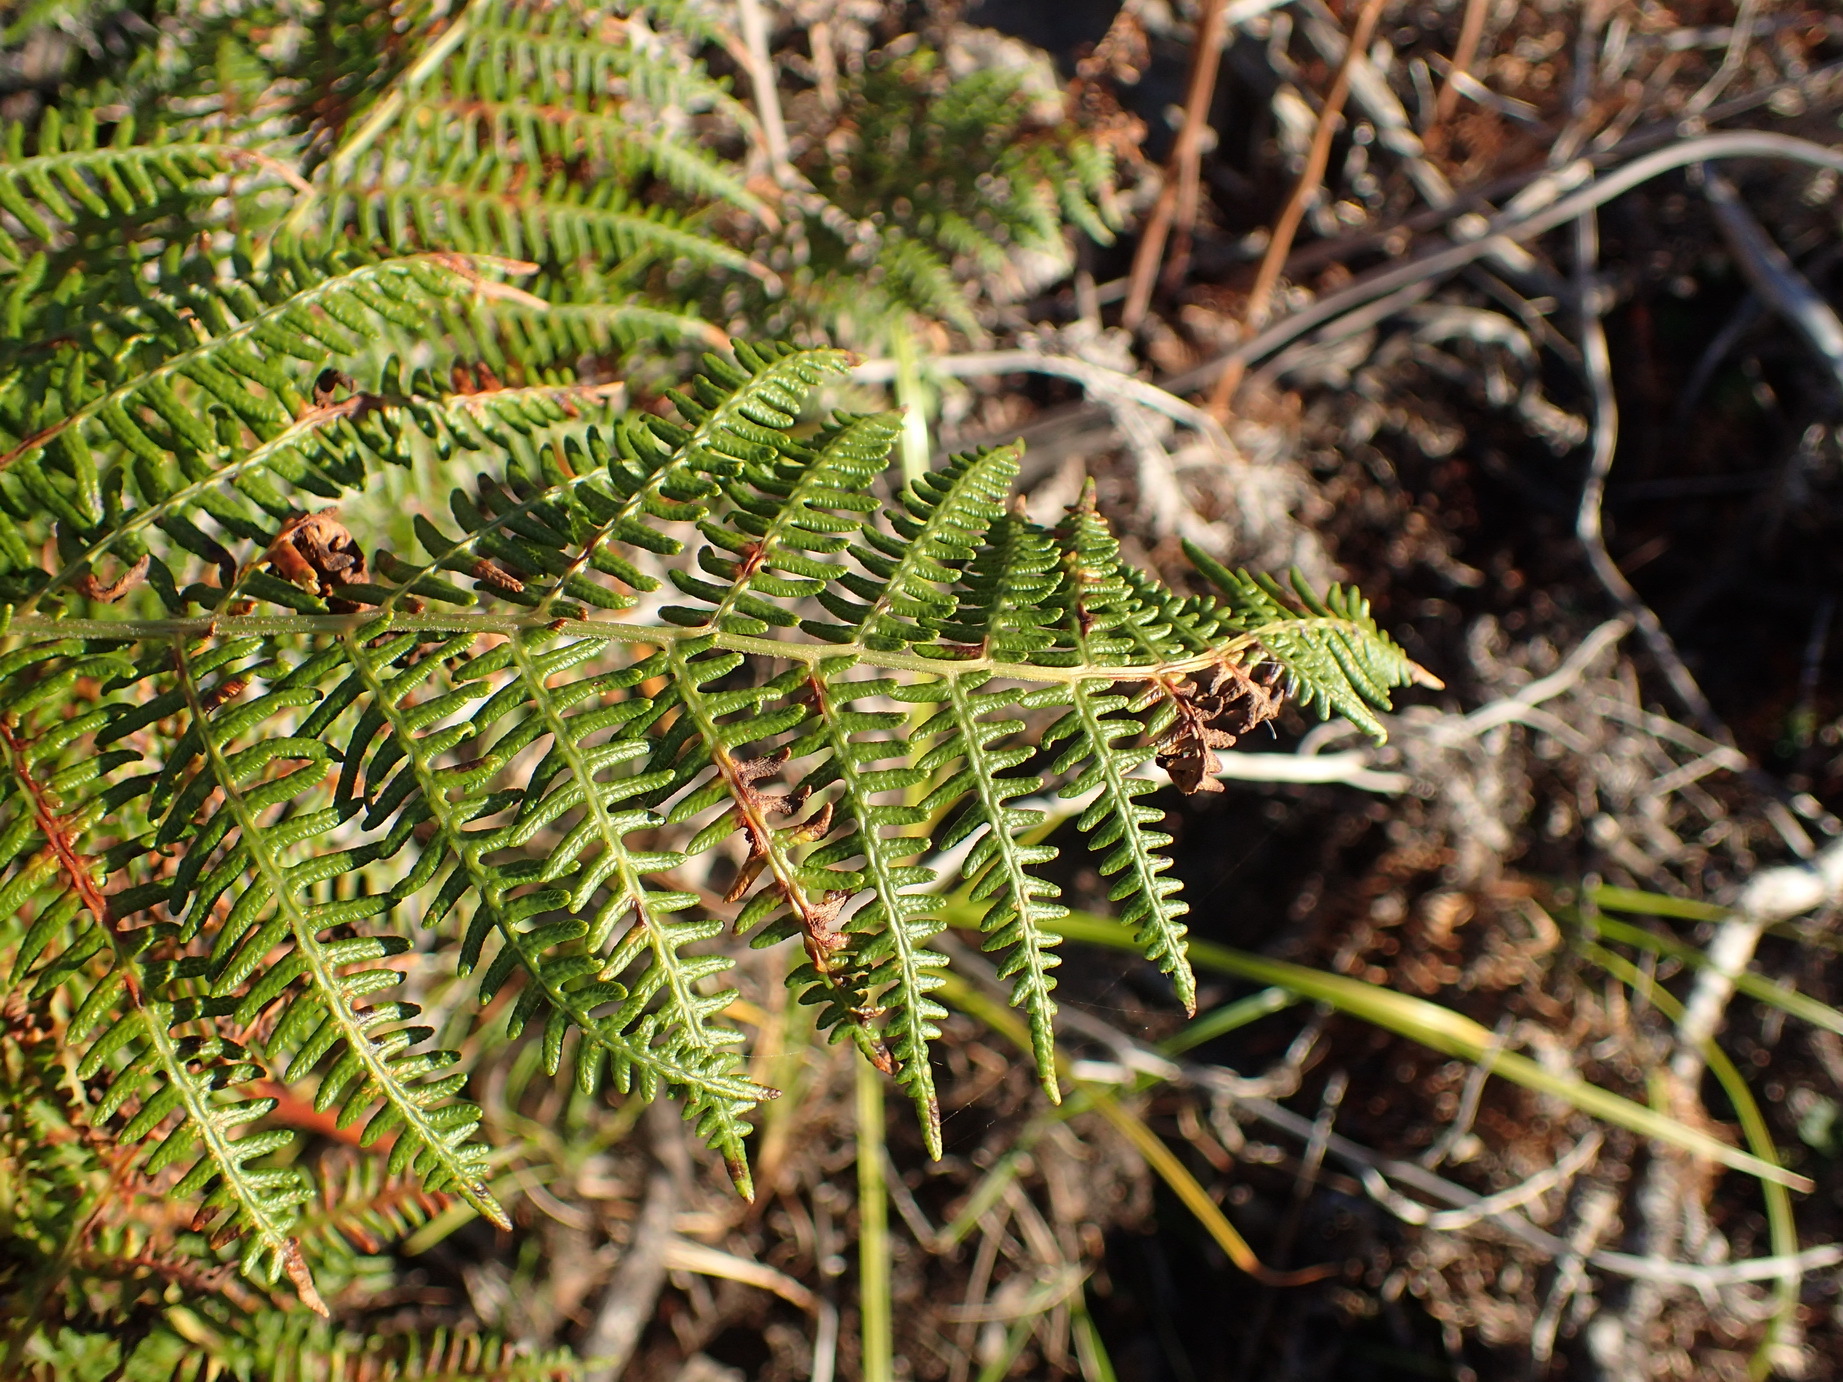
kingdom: Plantae
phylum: Tracheophyta
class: Polypodiopsida
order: Polypodiales
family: Dennstaedtiaceae
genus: Pteridium
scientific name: Pteridium aquilinum
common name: Bracken
